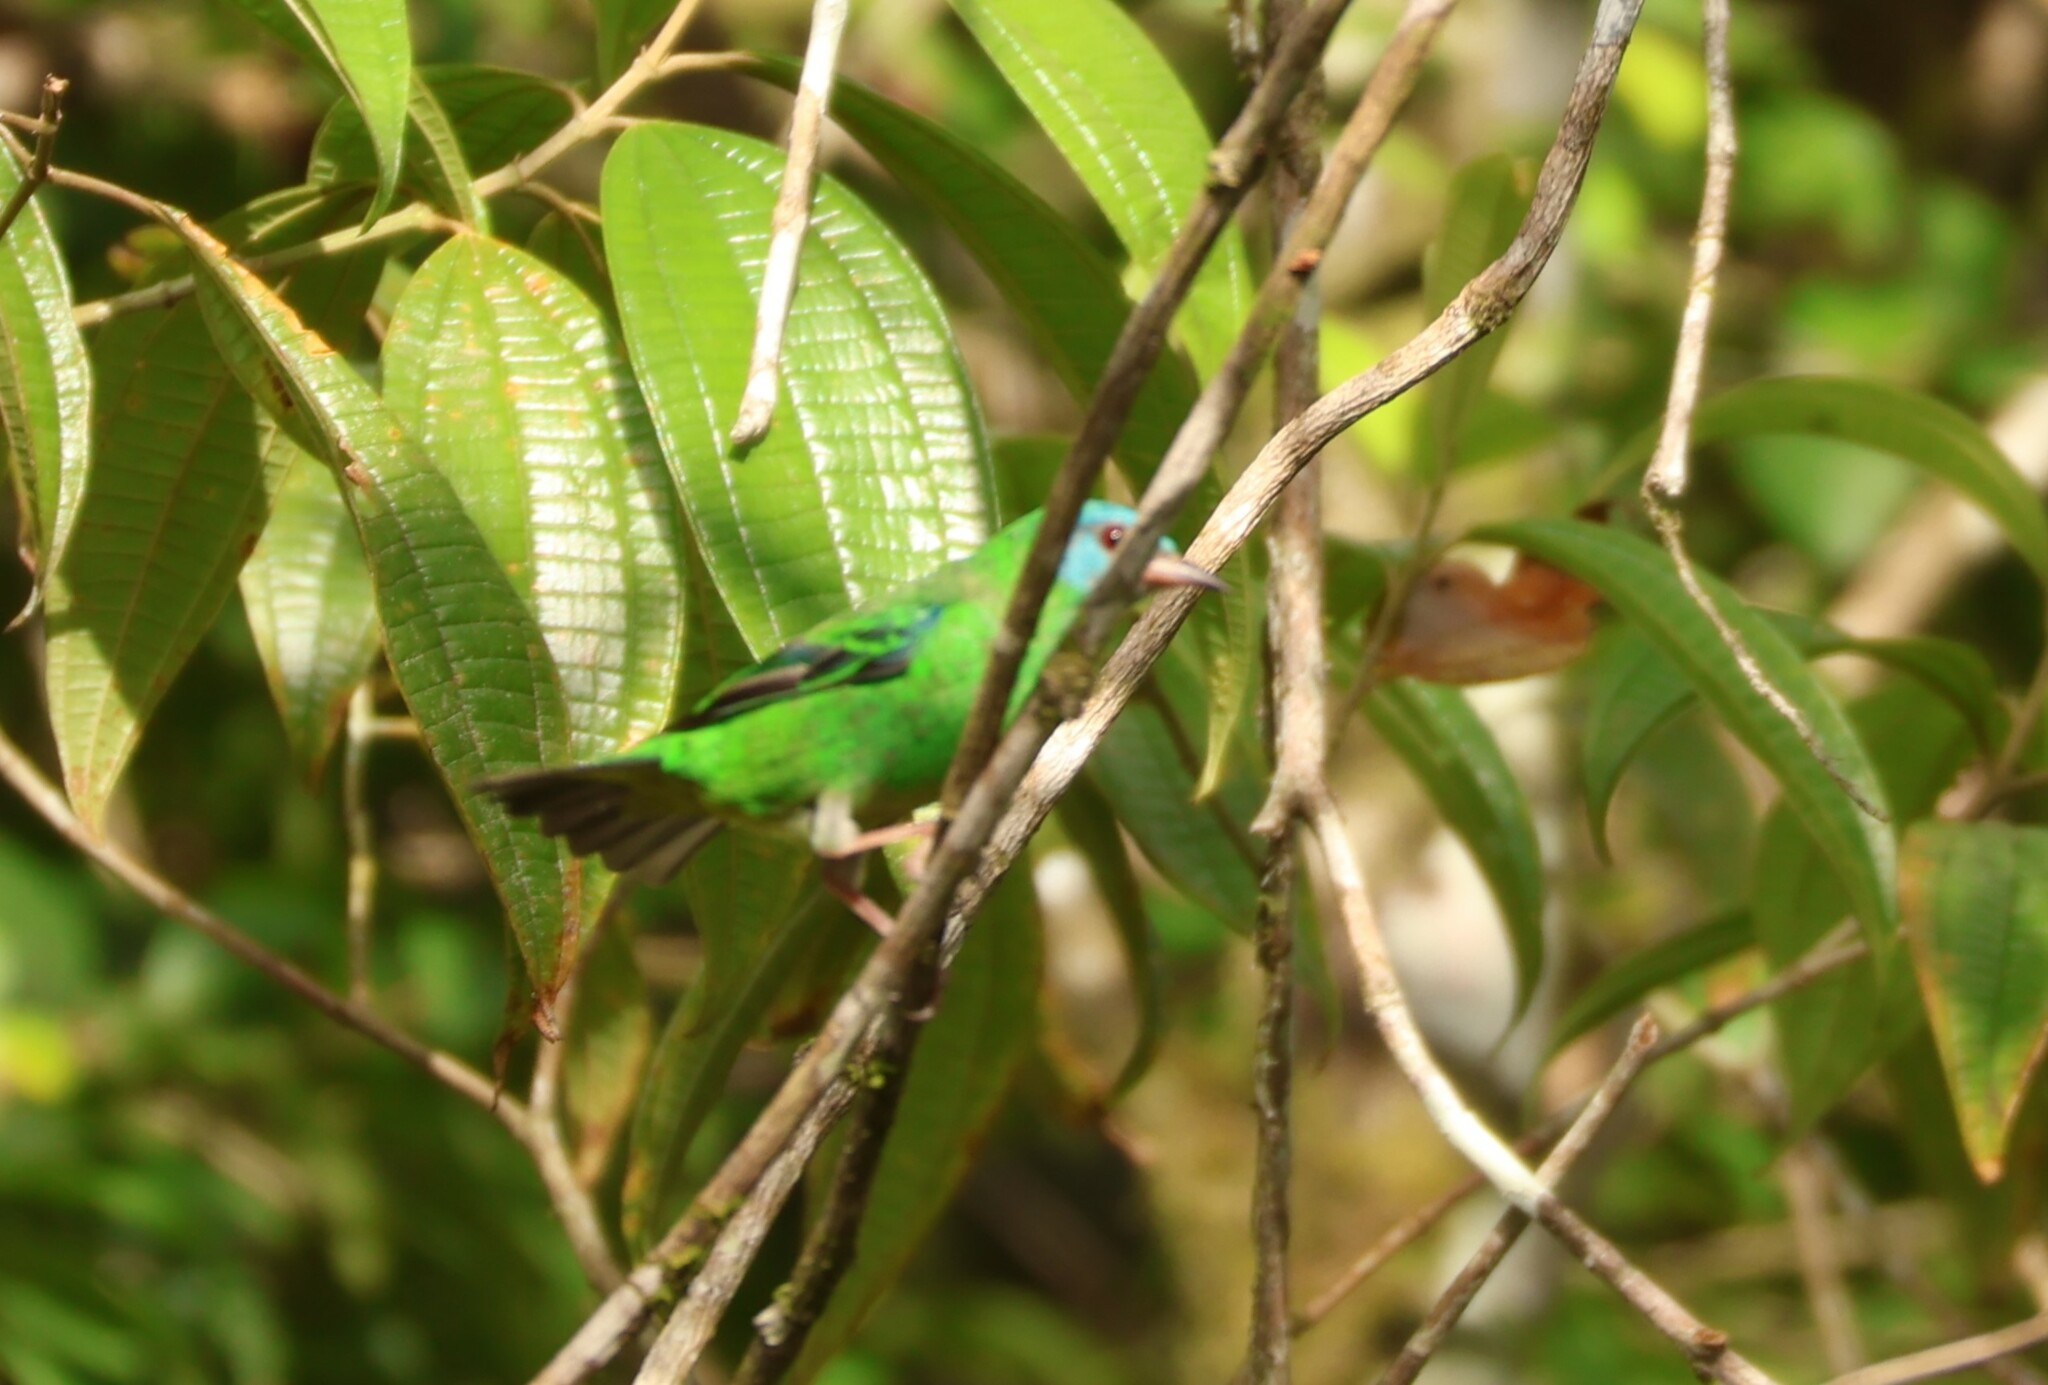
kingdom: Animalia
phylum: Chordata
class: Aves
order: Passeriformes
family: Thraupidae
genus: Dacnis
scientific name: Dacnis cayana
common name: Blue dacnis
